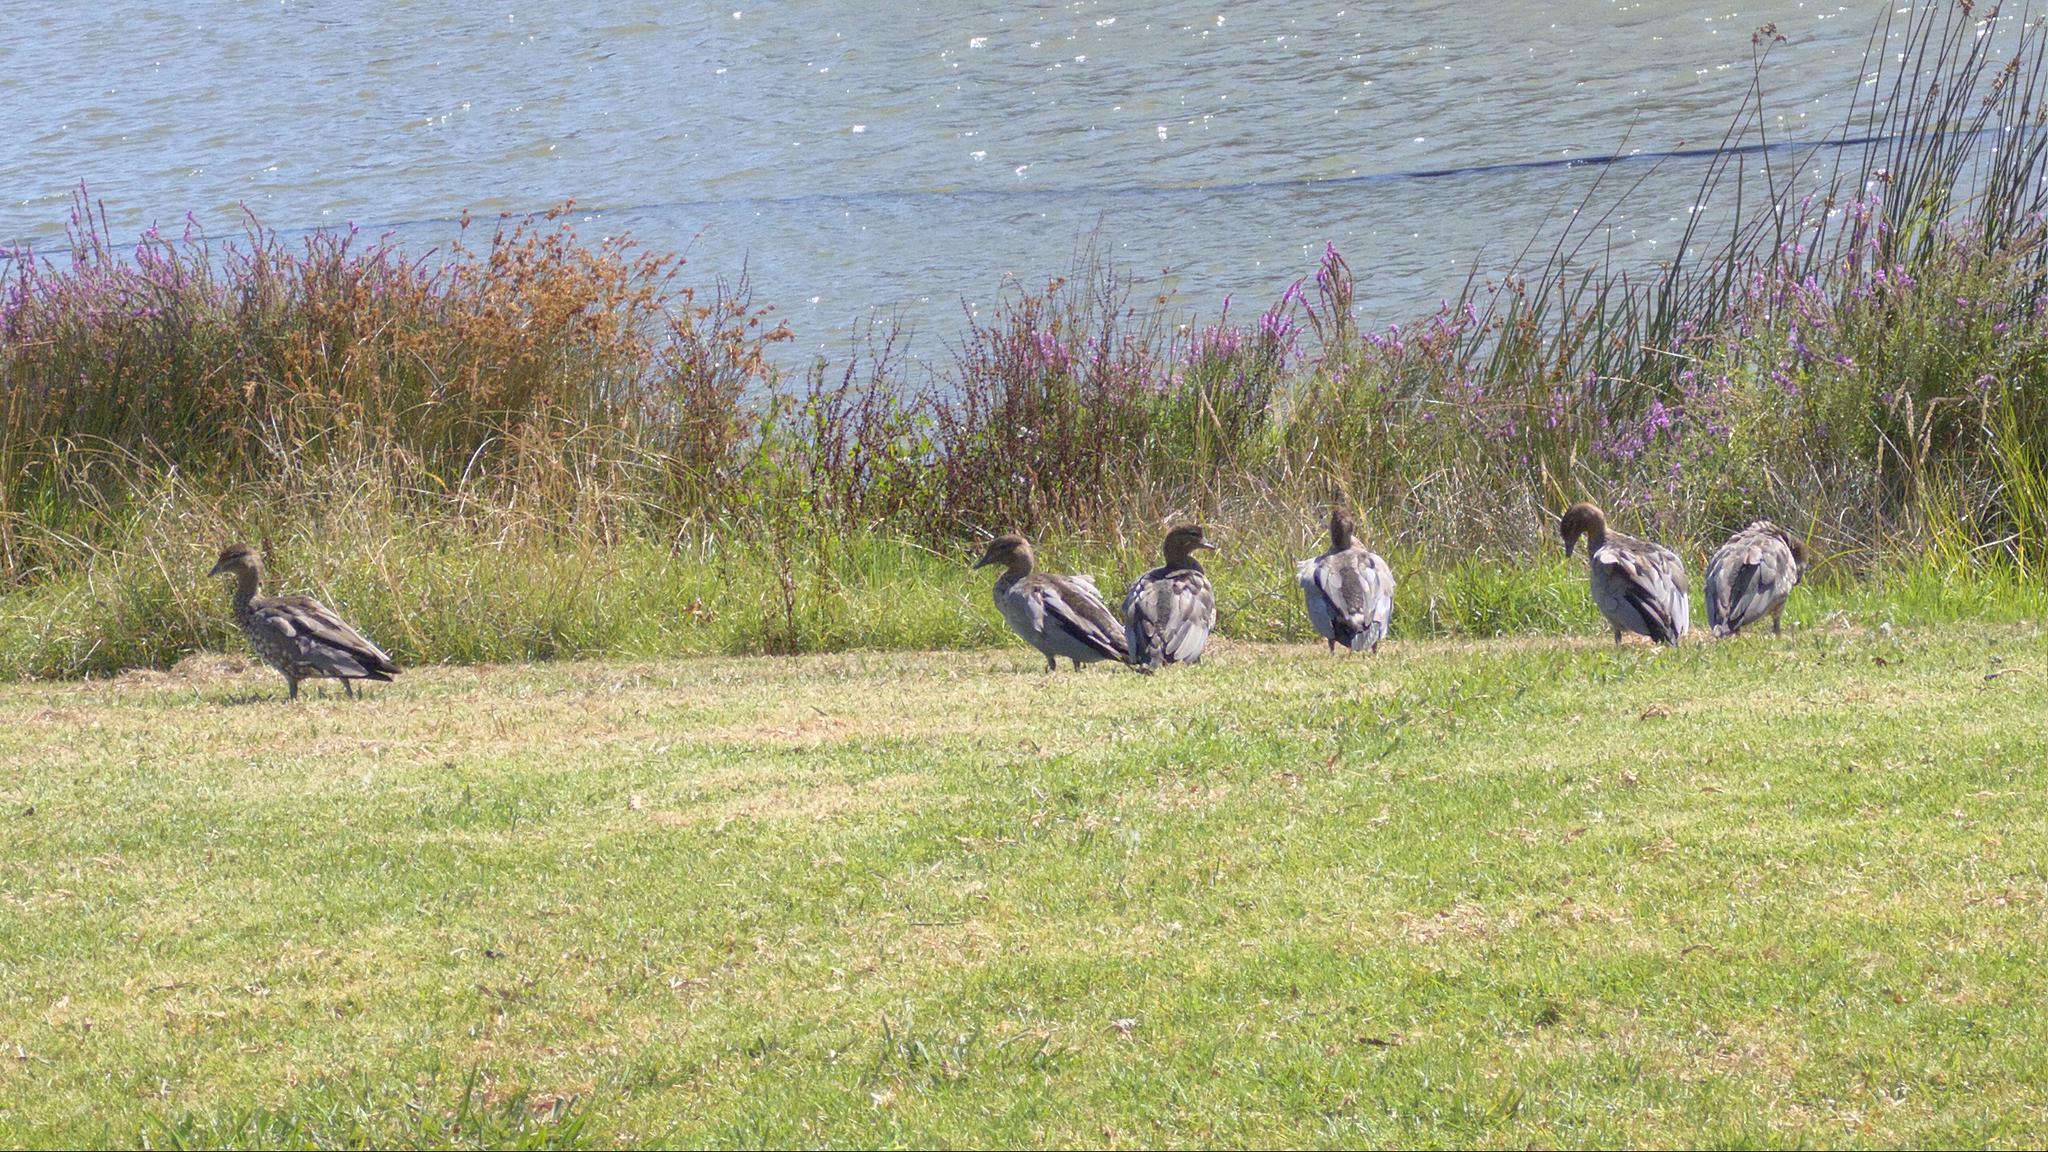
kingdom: Animalia
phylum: Chordata
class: Aves
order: Anseriformes
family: Anatidae
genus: Chenonetta
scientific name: Chenonetta jubata
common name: Maned duck
